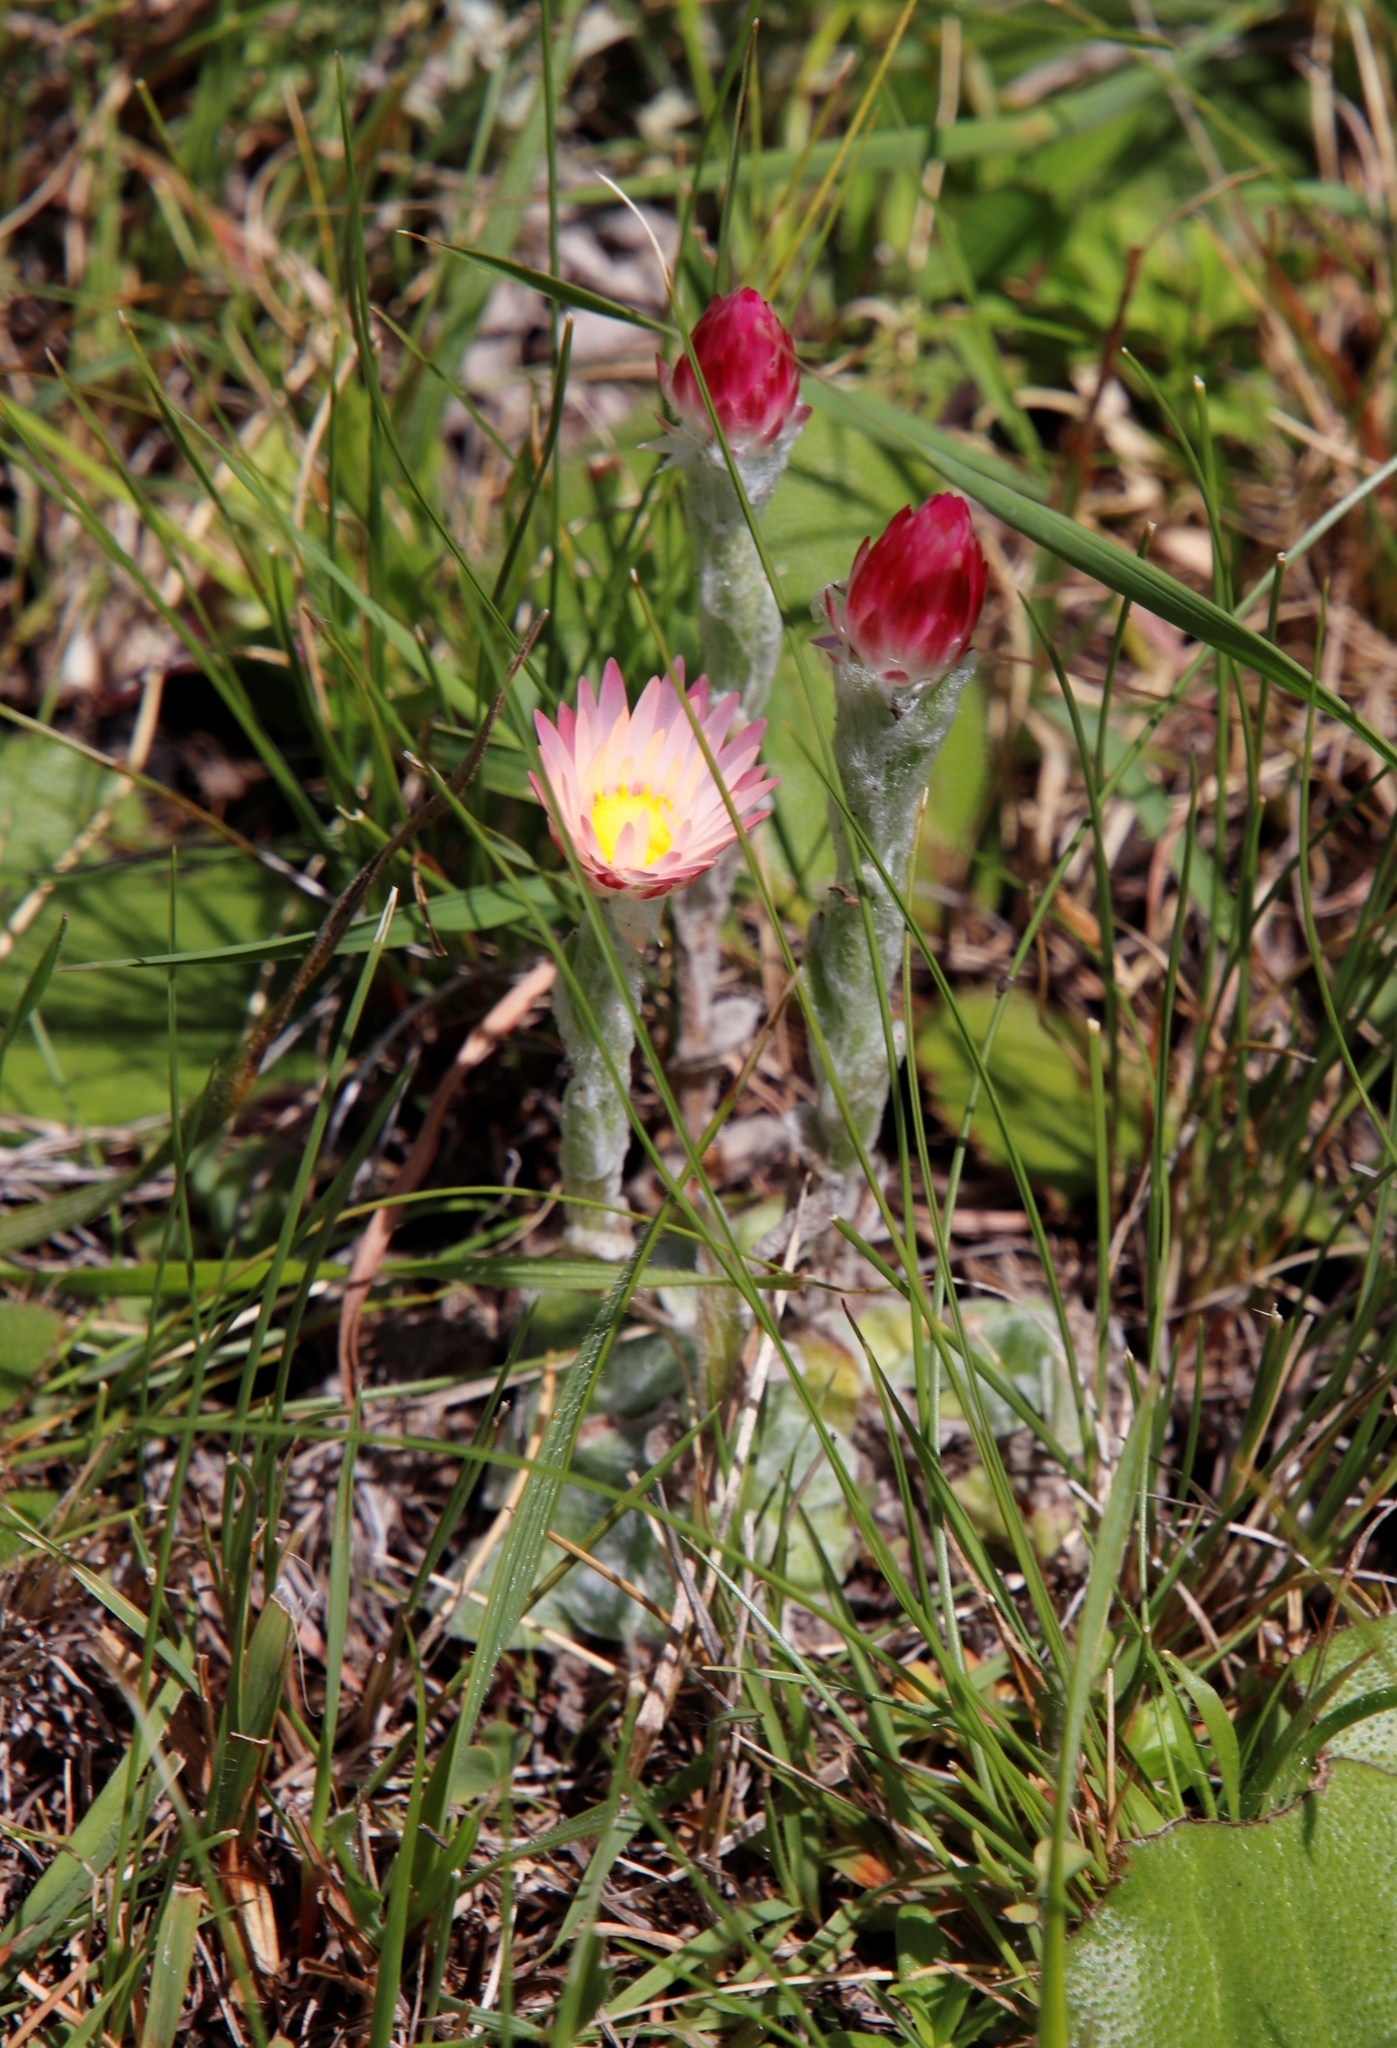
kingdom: Plantae
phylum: Tracheophyta
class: Magnoliopsida
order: Asterales
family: Asteraceae
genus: Helichrysum
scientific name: Helichrysum adenocarpum
